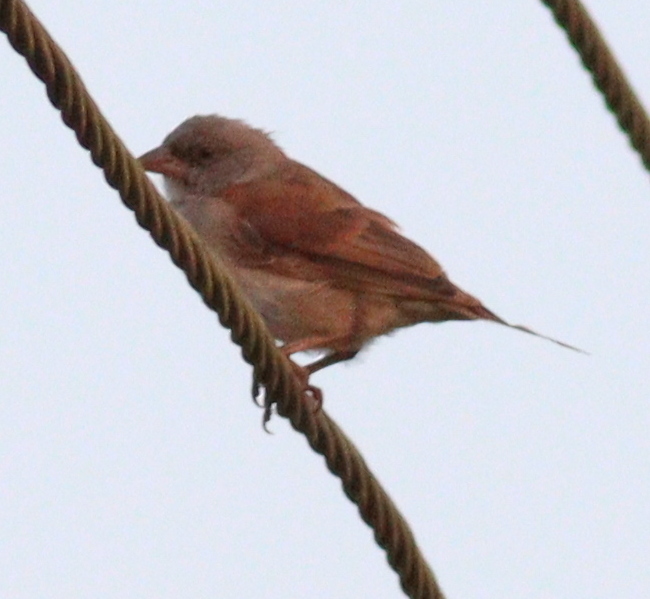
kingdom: Animalia
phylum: Chordata
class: Aves
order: Passeriformes
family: Passeridae
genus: Passer
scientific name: Passer griseus
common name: Northern grey-headed sparrow
